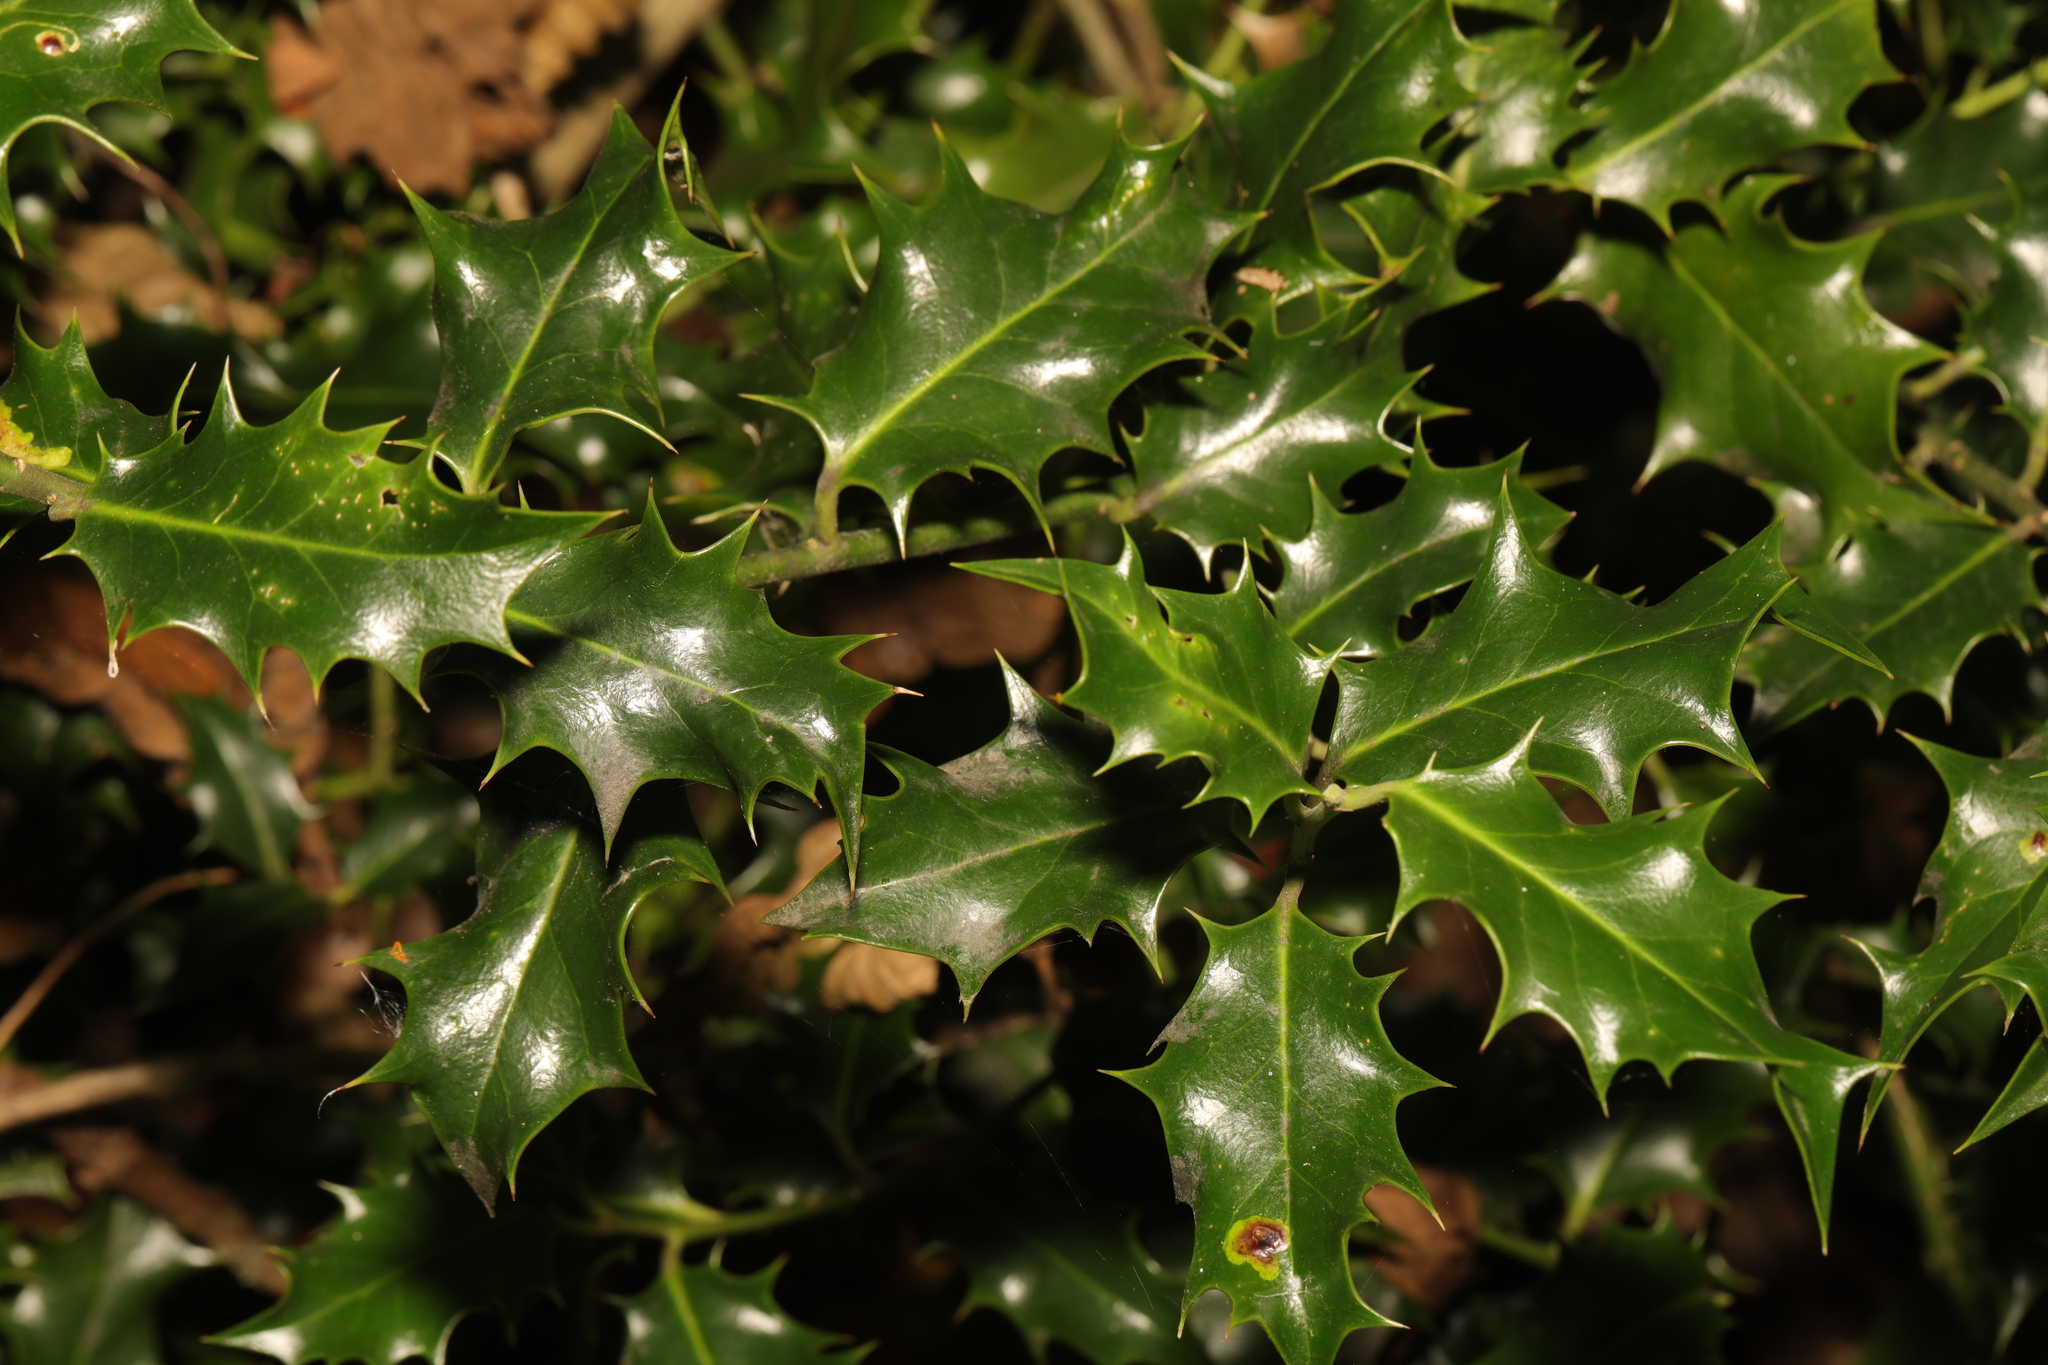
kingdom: Plantae
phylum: Tracheophyta
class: Magnoliopsida
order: Aquifoliales
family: Aquifoliaceae
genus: Ilex
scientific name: Ilex aquifolium
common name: English holly
